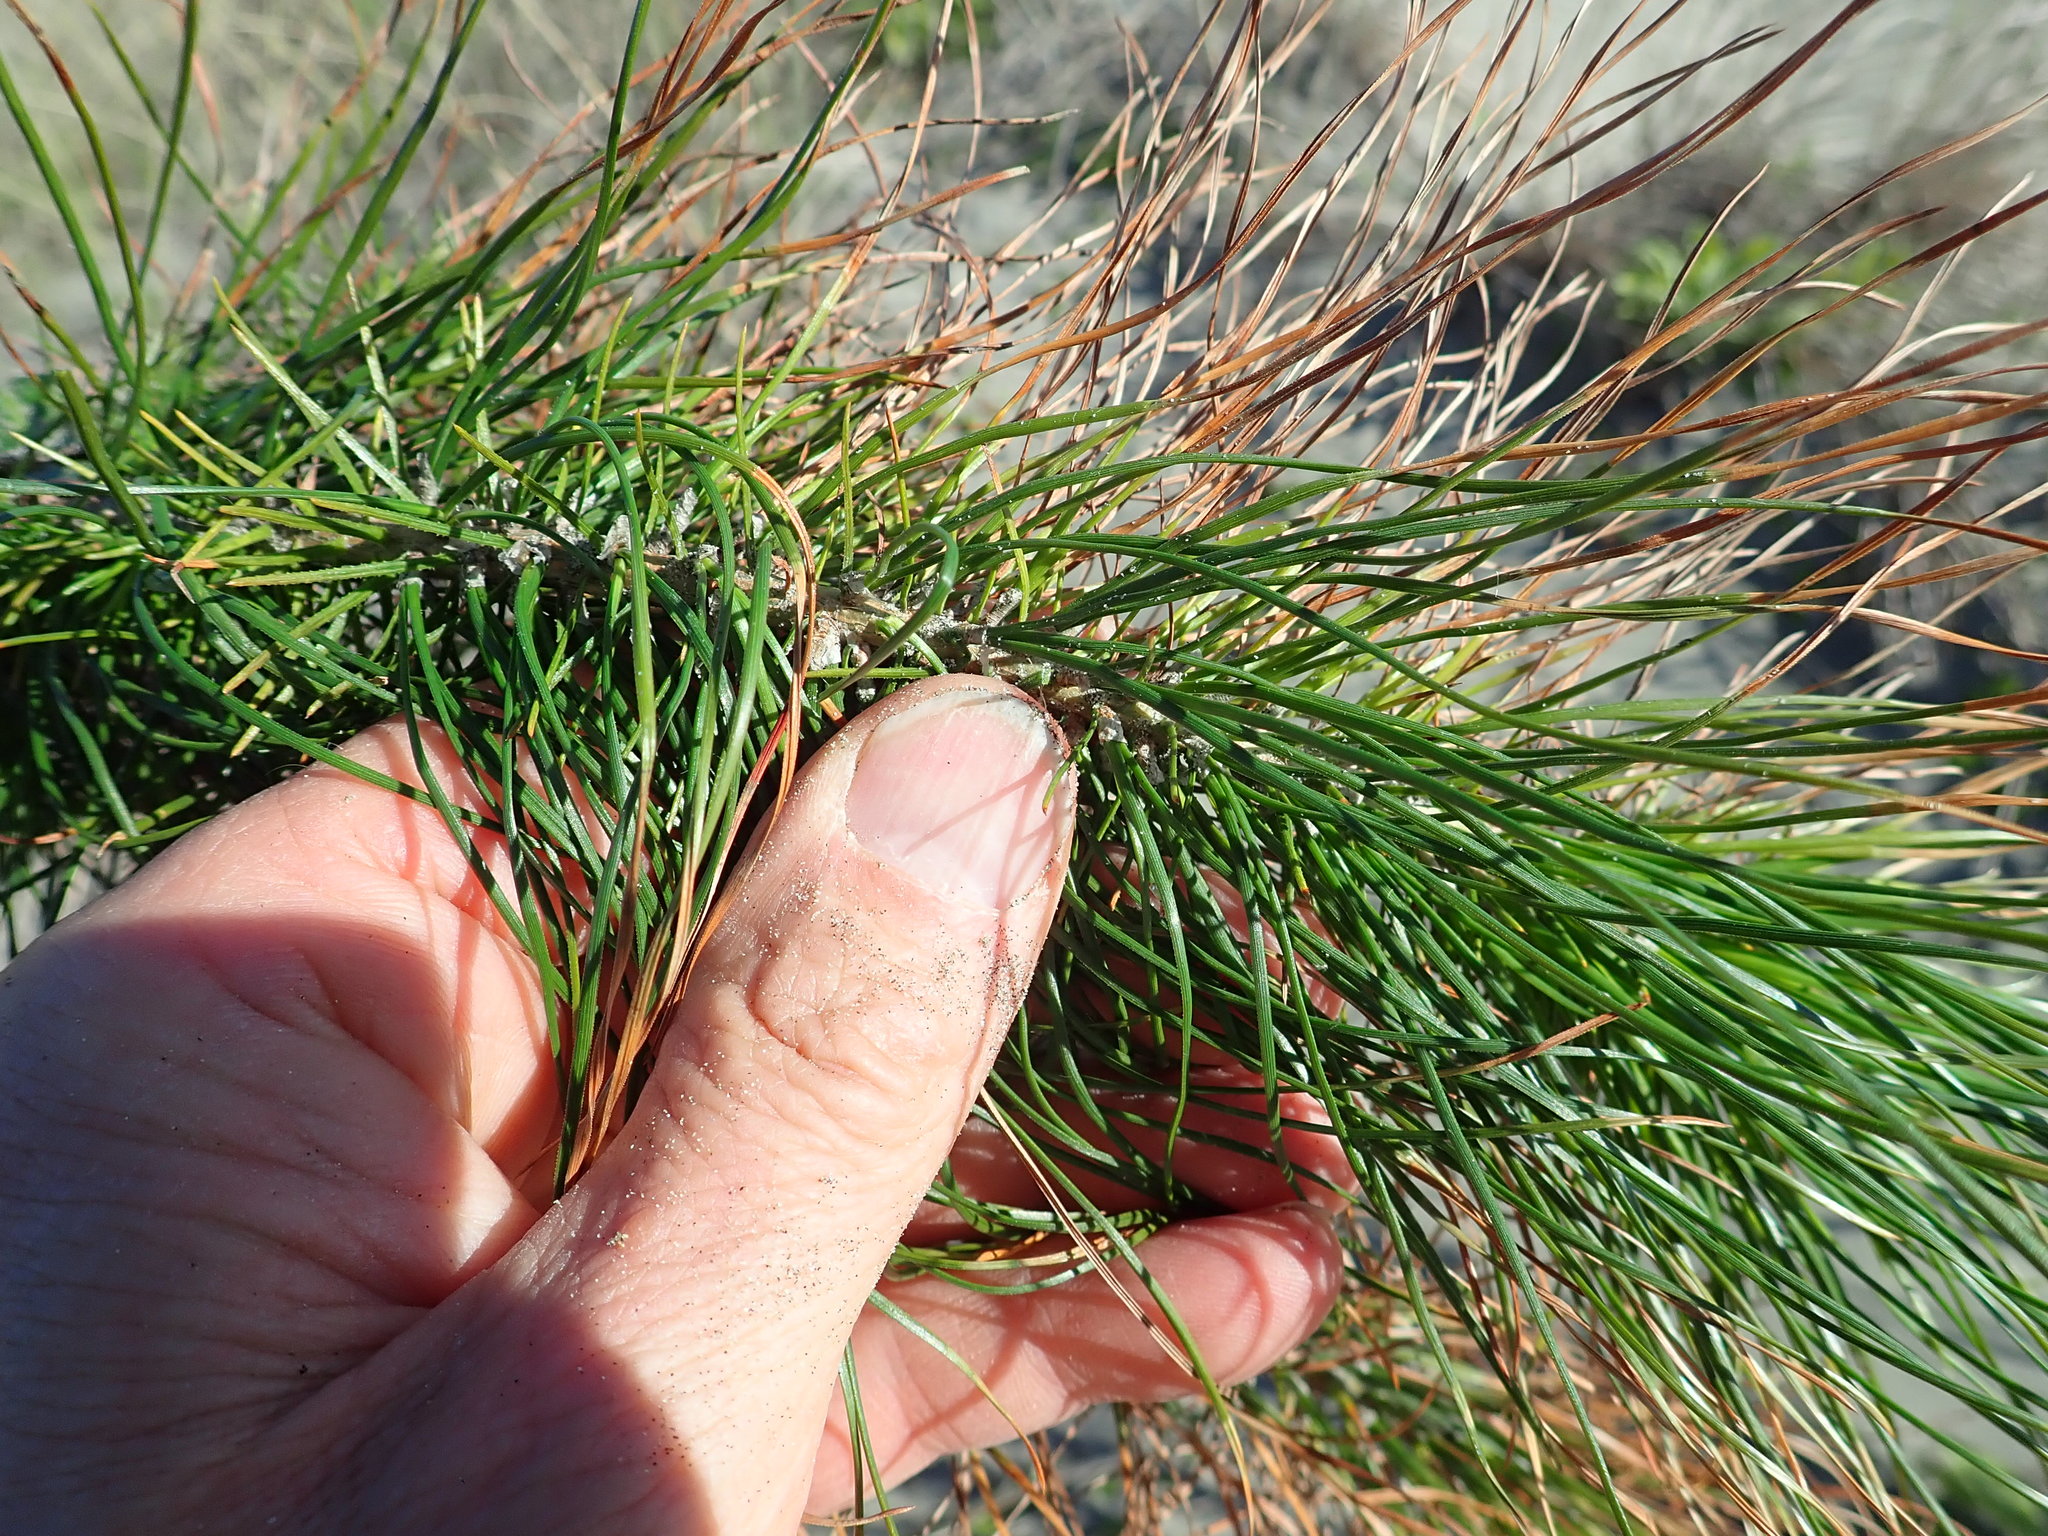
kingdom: Plantae
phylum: Tracheophyta
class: Pinopsida
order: Pinales
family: Pinaceae
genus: Pinus
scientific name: Pinus radiata
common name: Monterey pine
